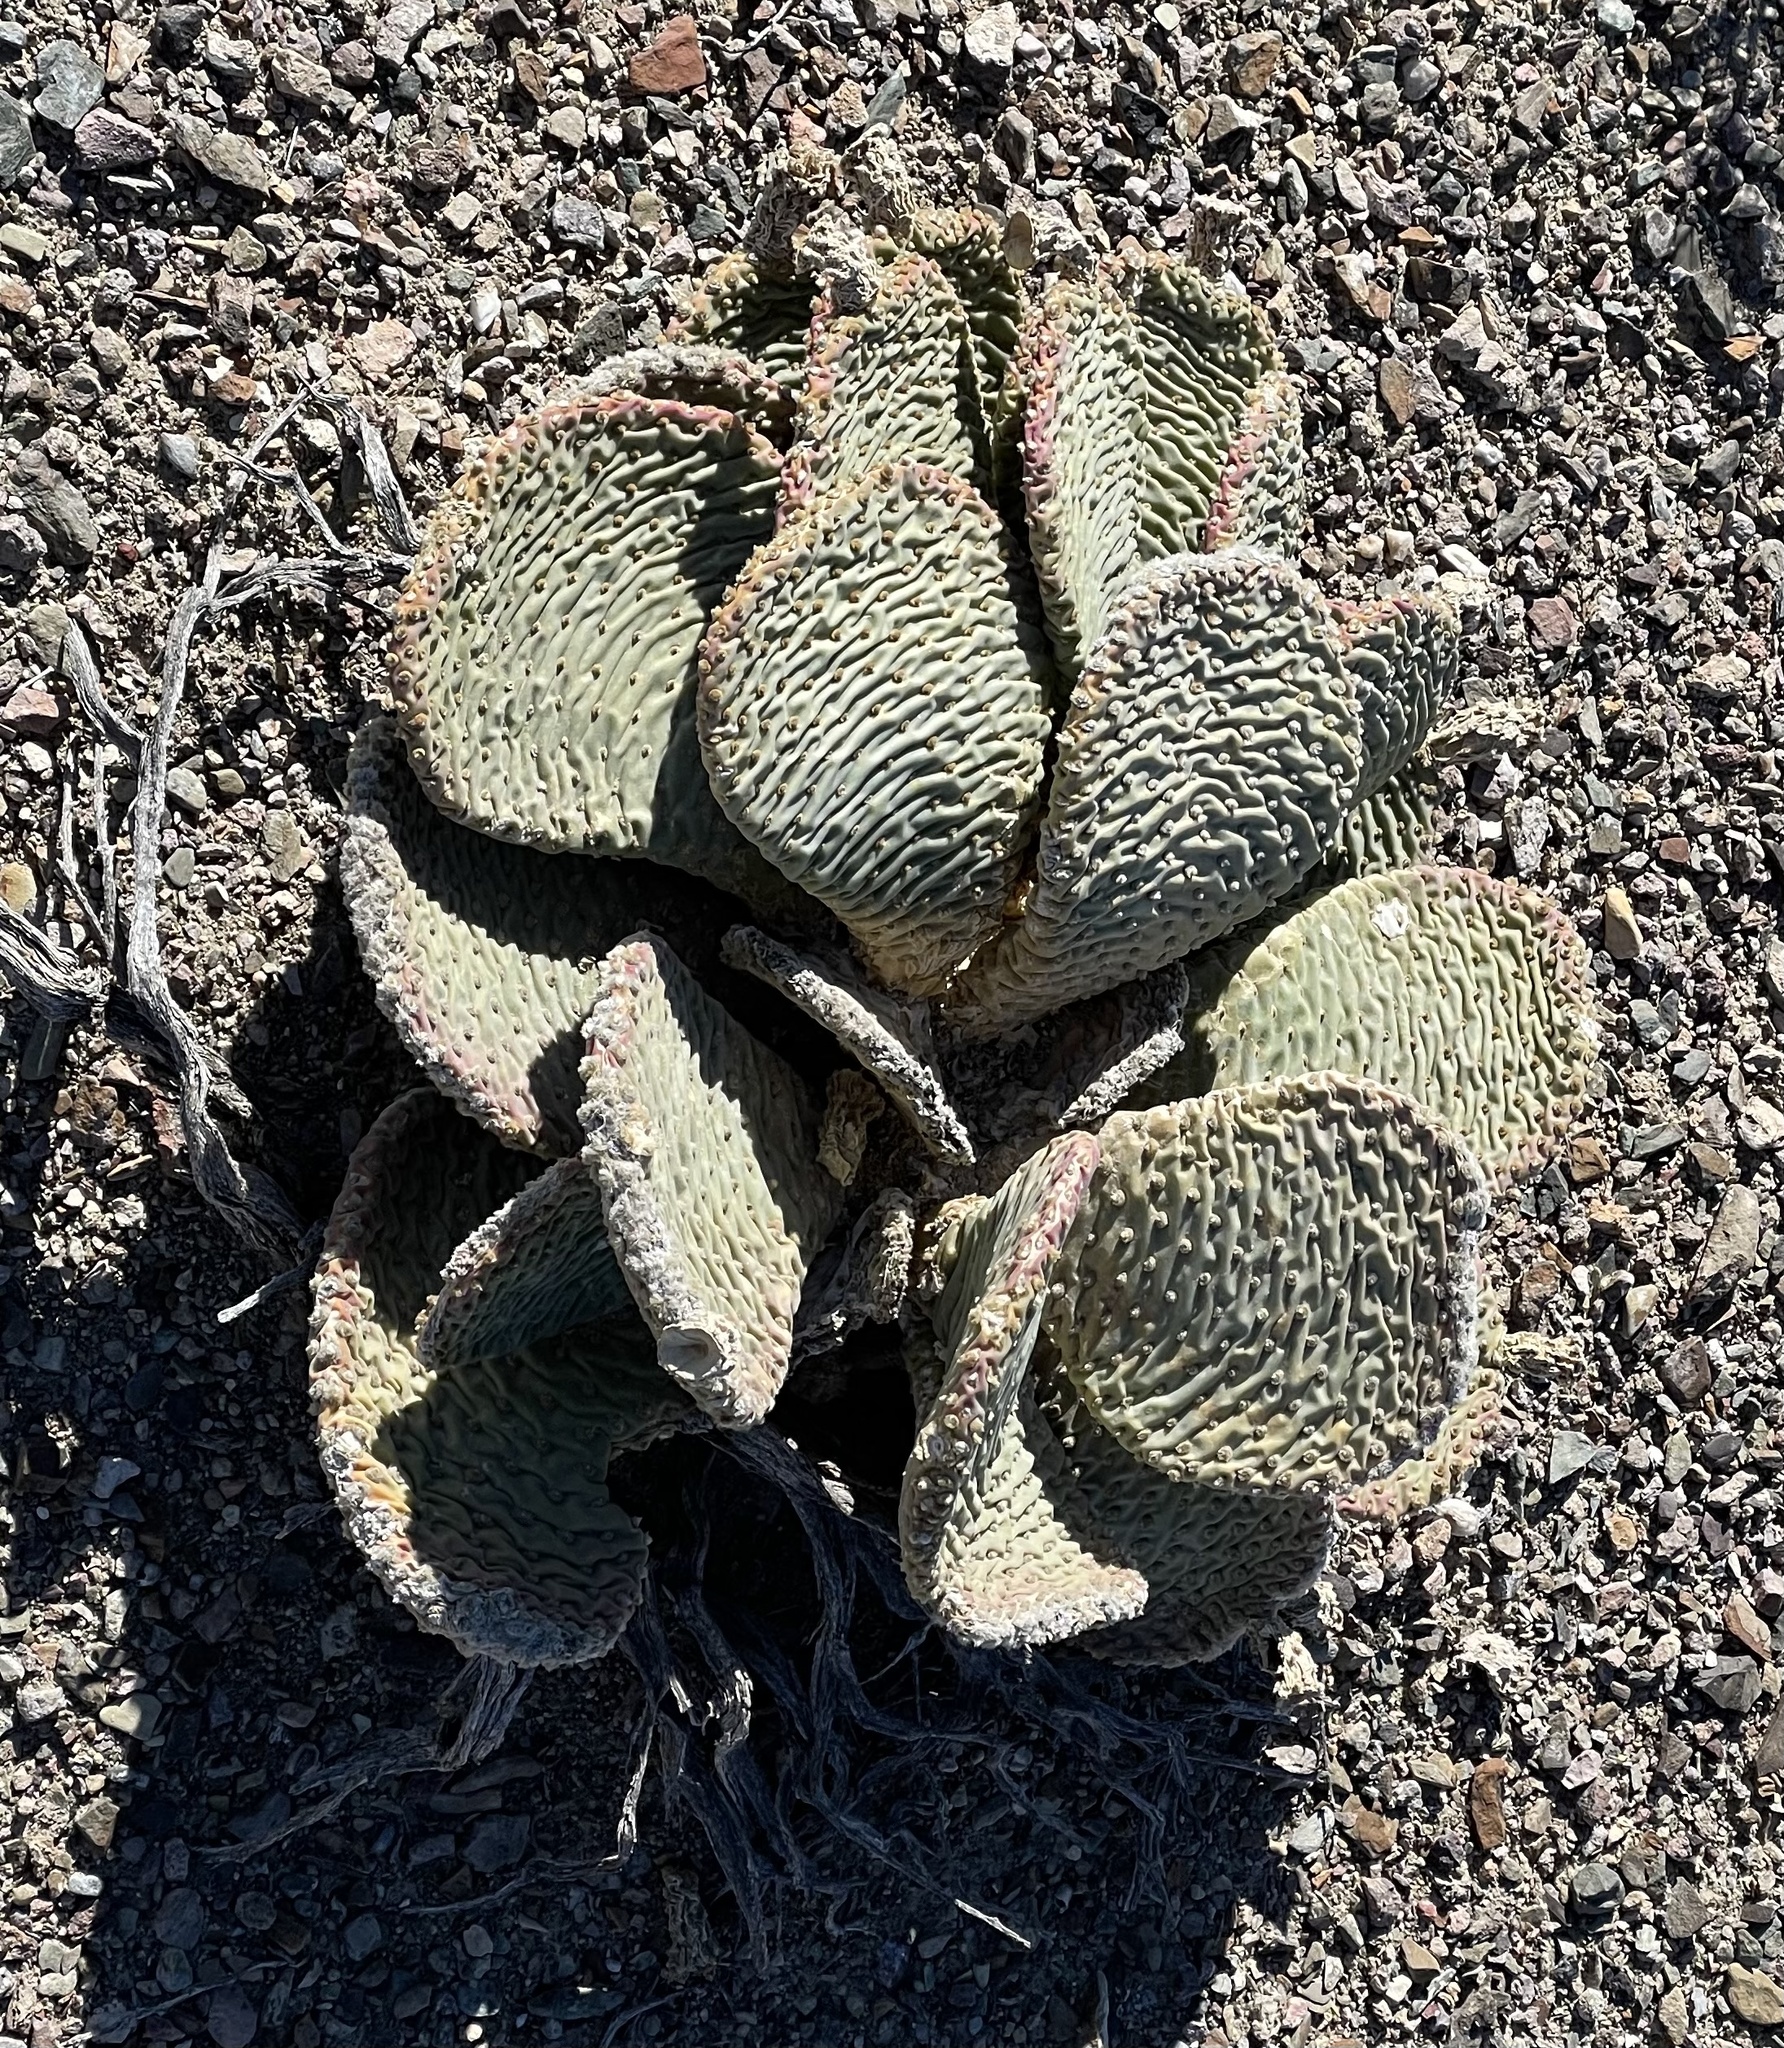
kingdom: Plantae
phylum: Tracheophyta
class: Magnoliopsida
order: Caryophyllales
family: Cactaceae
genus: Opuntia
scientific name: Opuntia basilaris
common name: Beavertail prickly-pear
